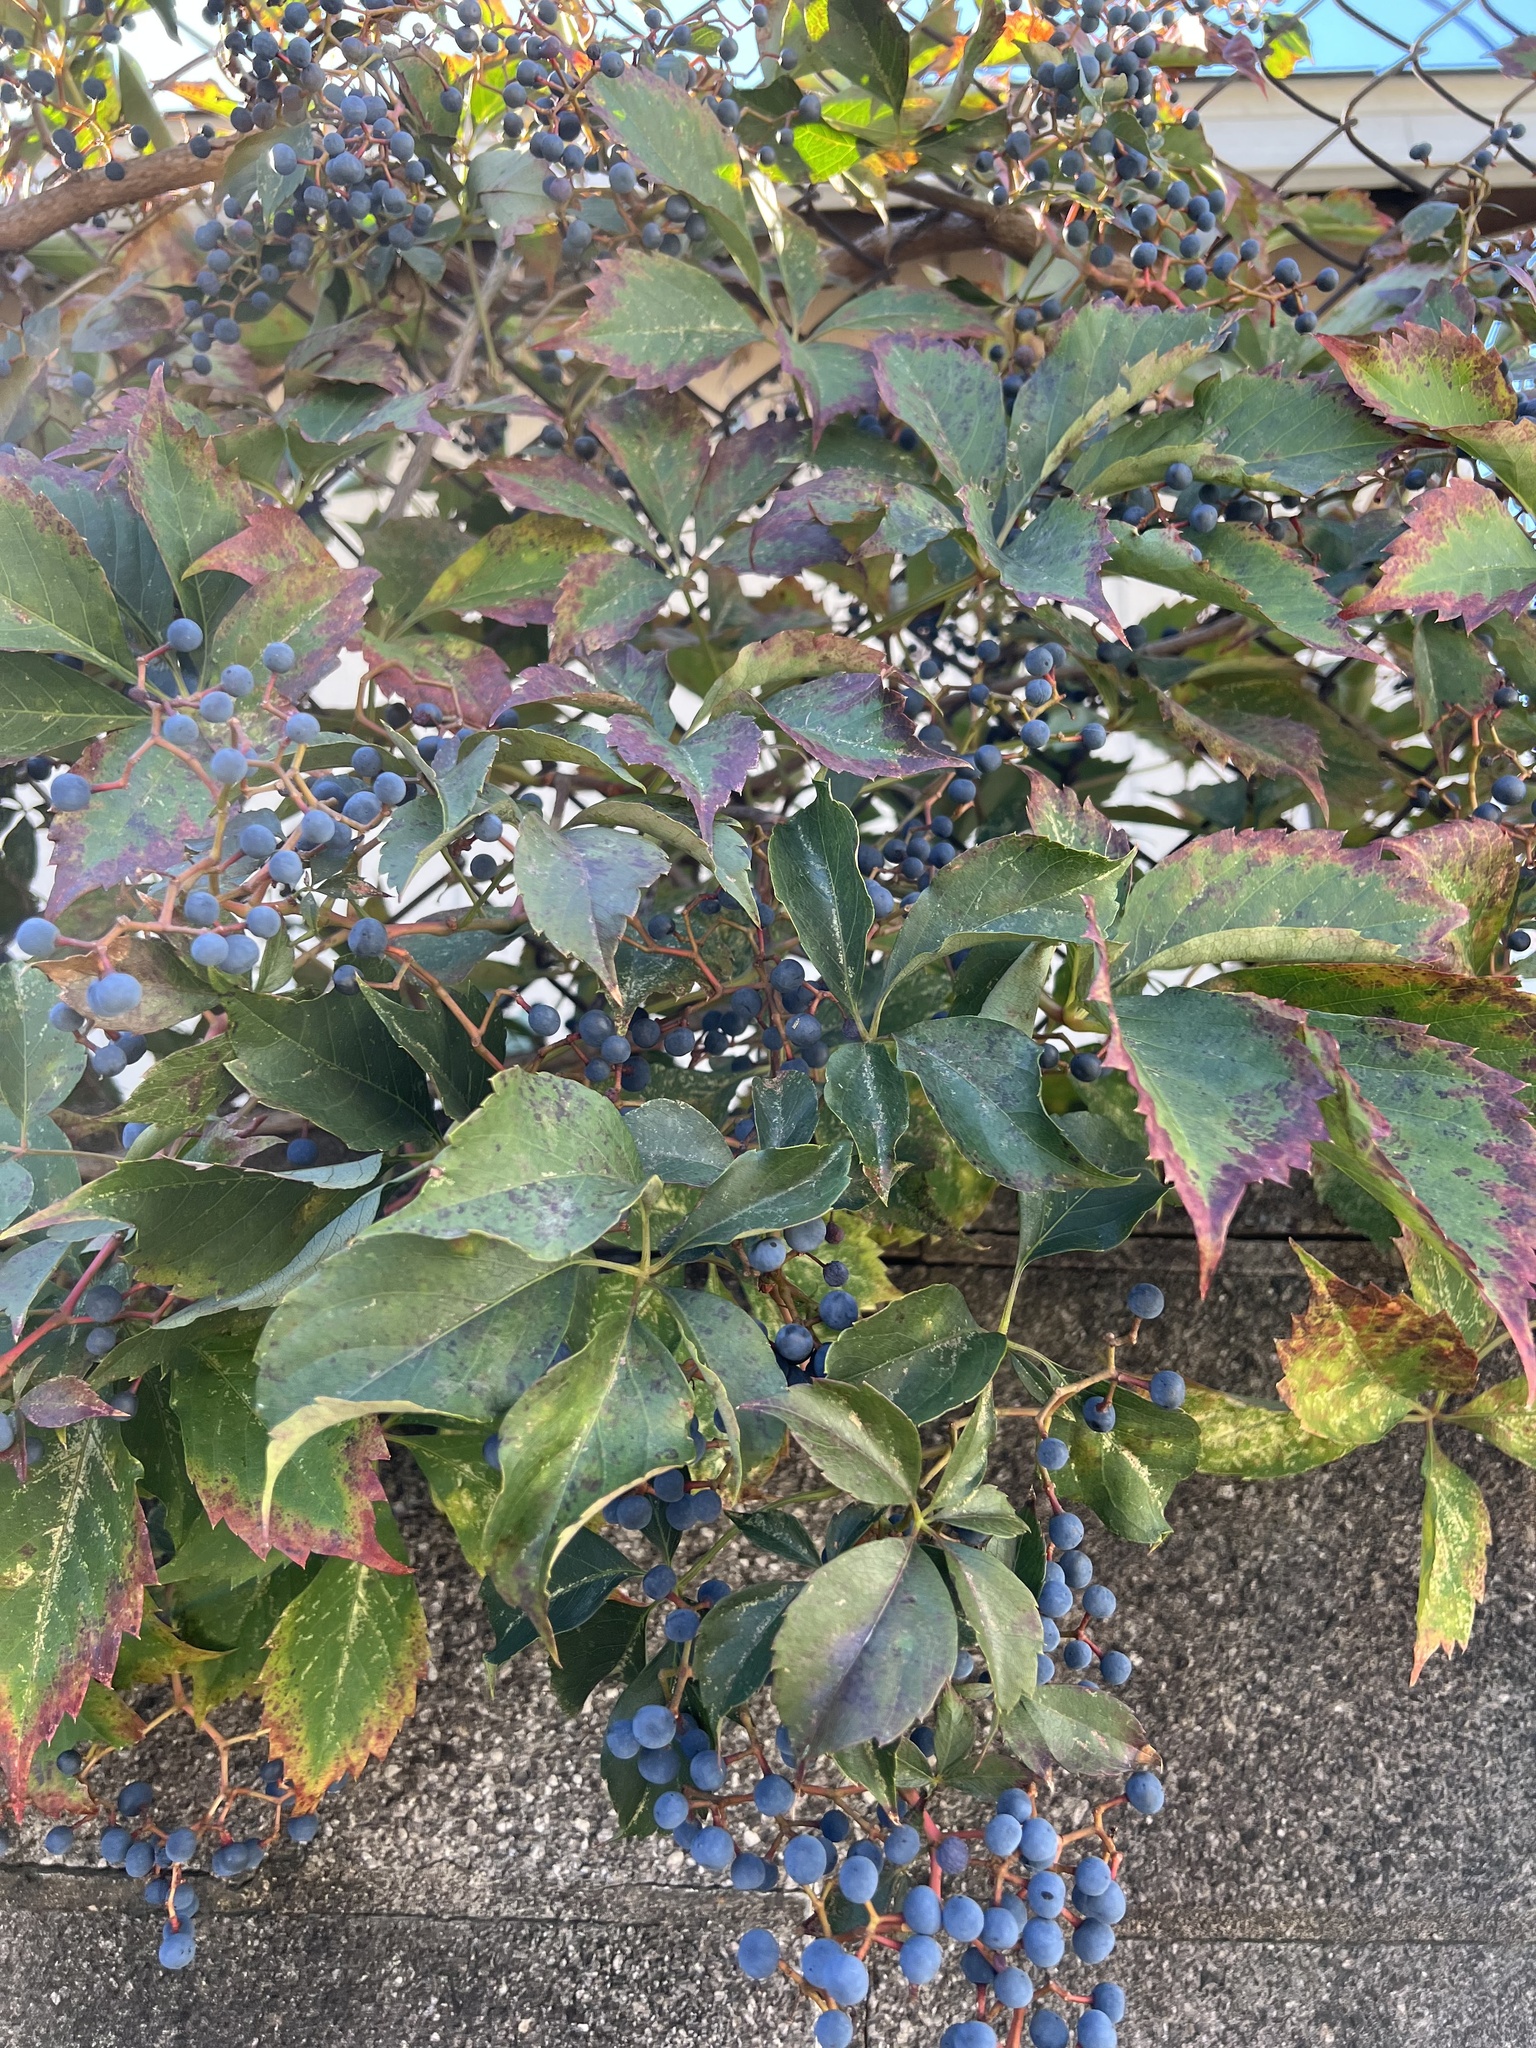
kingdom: Plantae
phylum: Tracheophyta
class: Magnoliopsida
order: Vitales
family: Vitaceae
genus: Parthenocissus
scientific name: Parthenocissus quinquefolia
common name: Virginia-creeper
